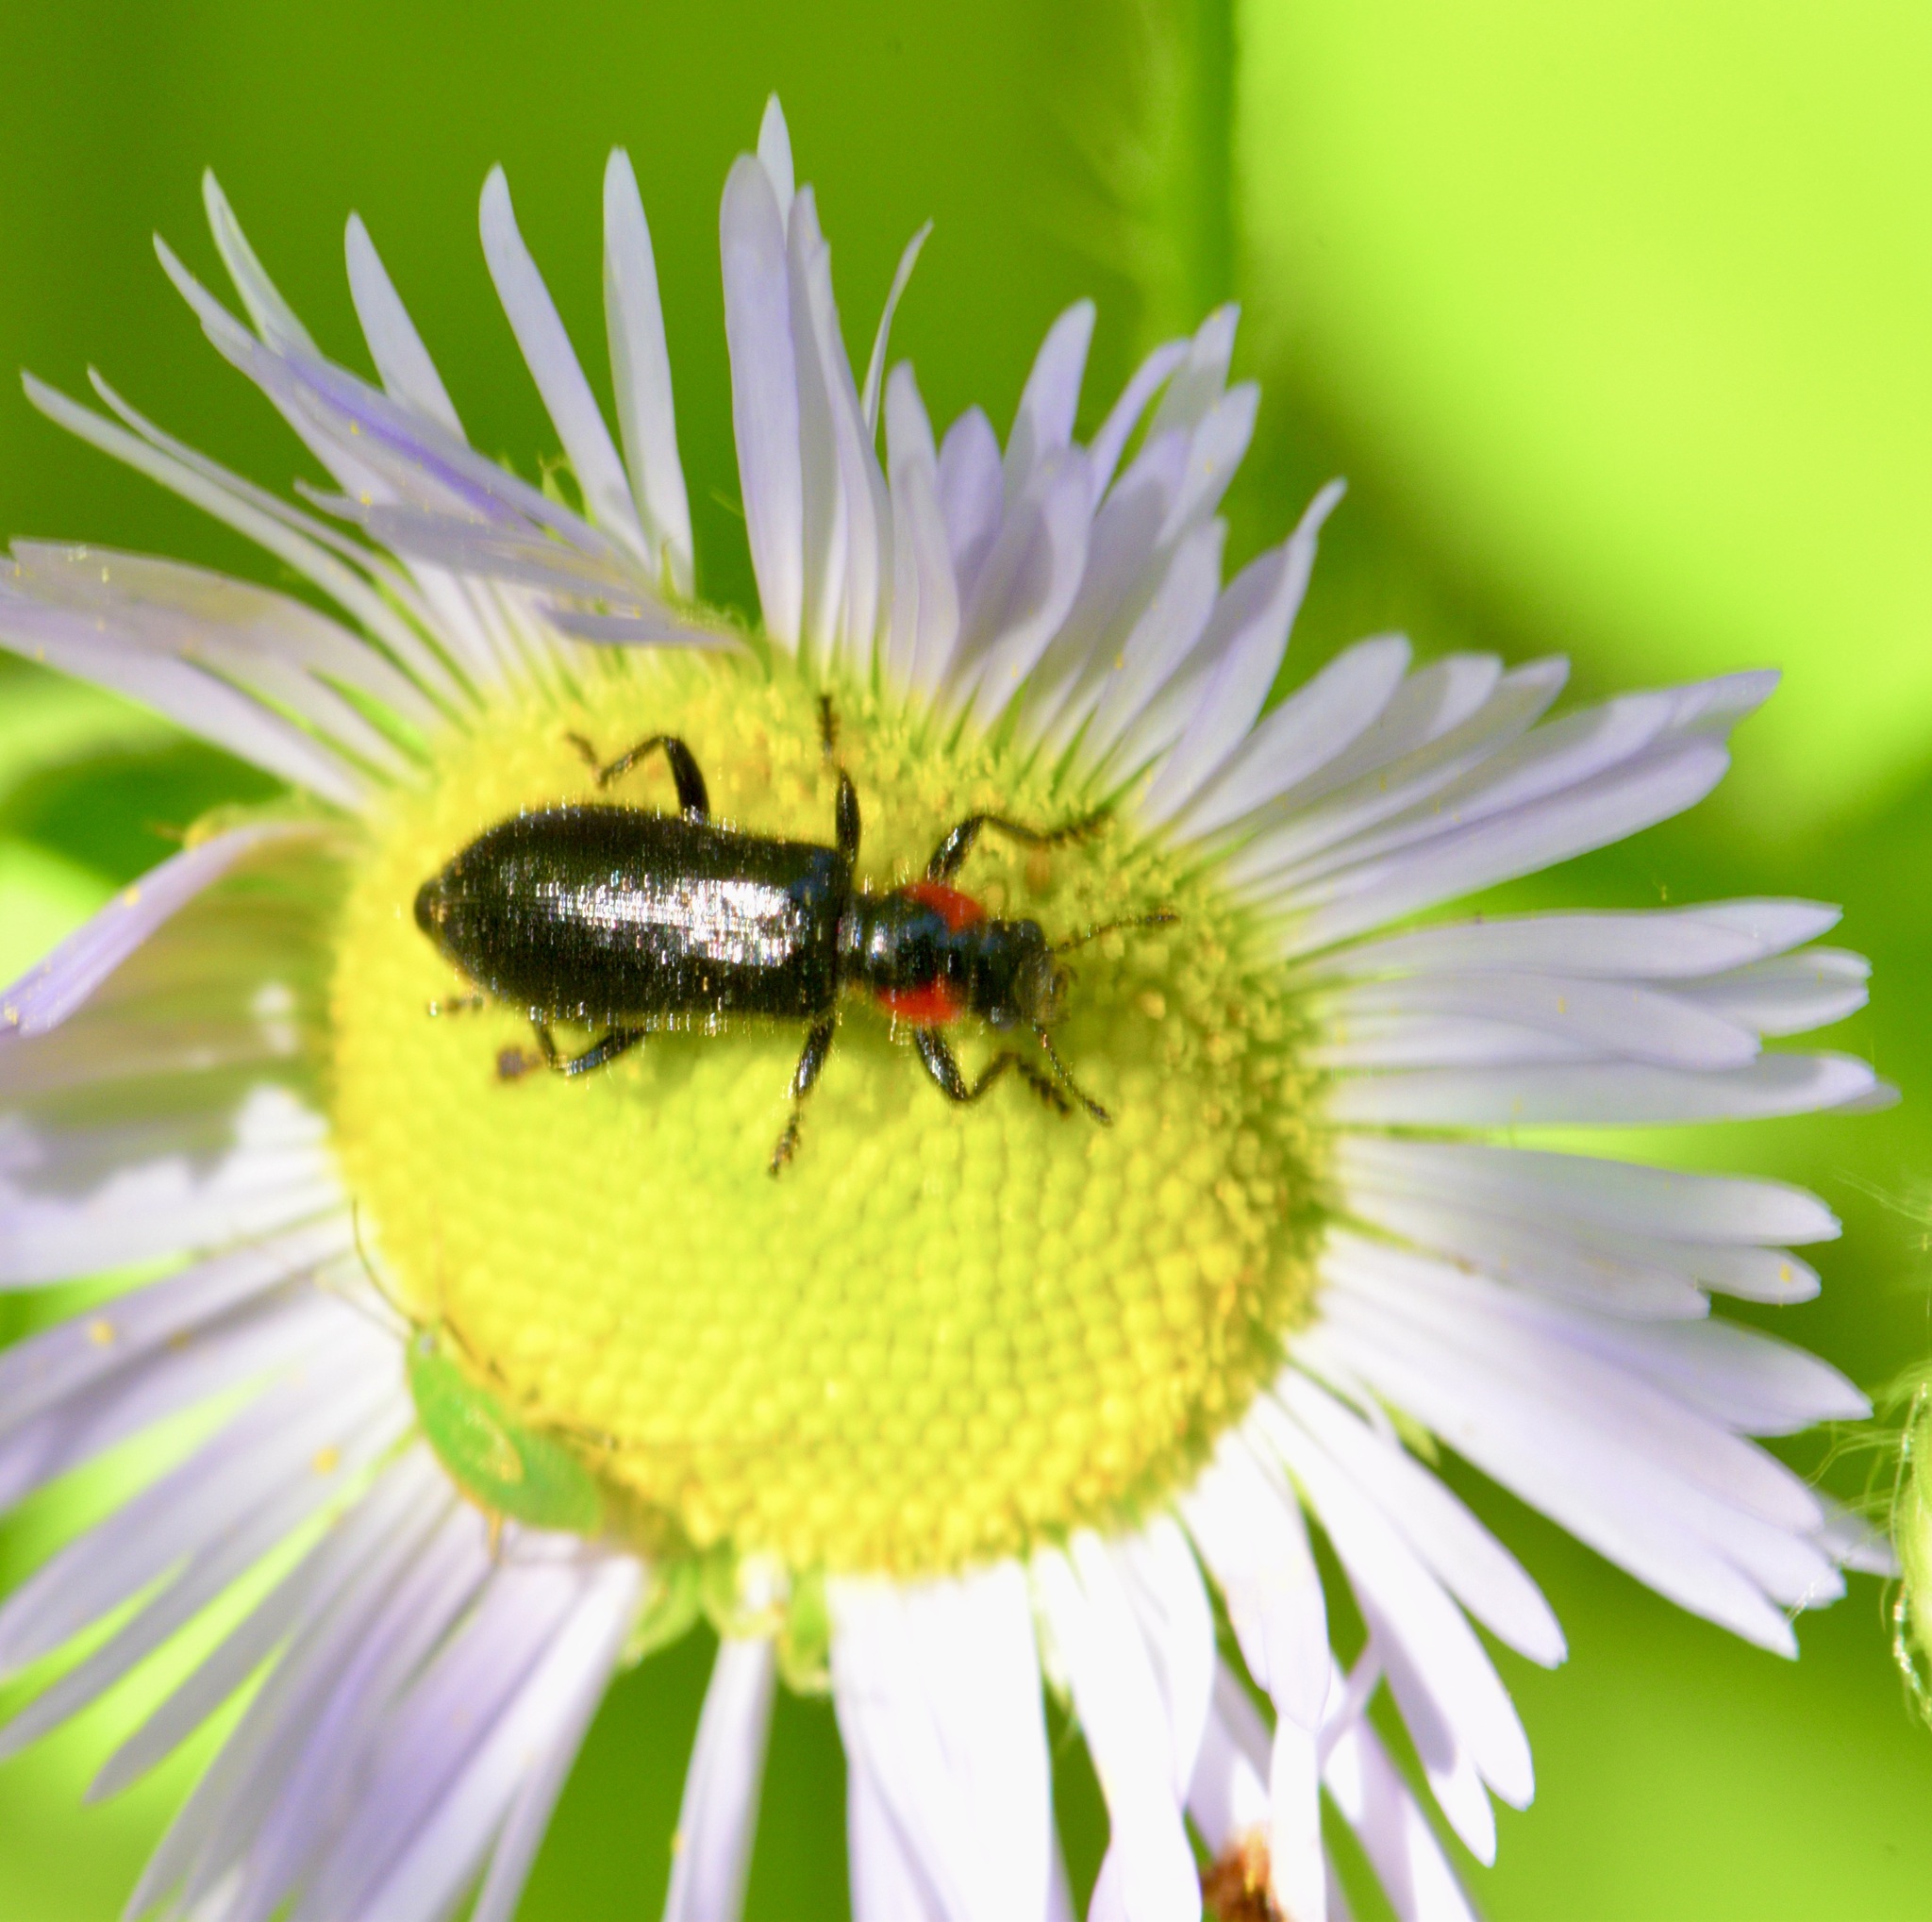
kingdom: Animalia
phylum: Arthropoda
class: Insecta
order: Coleoptera
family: Cleridae
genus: Placopterus
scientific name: Placopterus thoracicus
